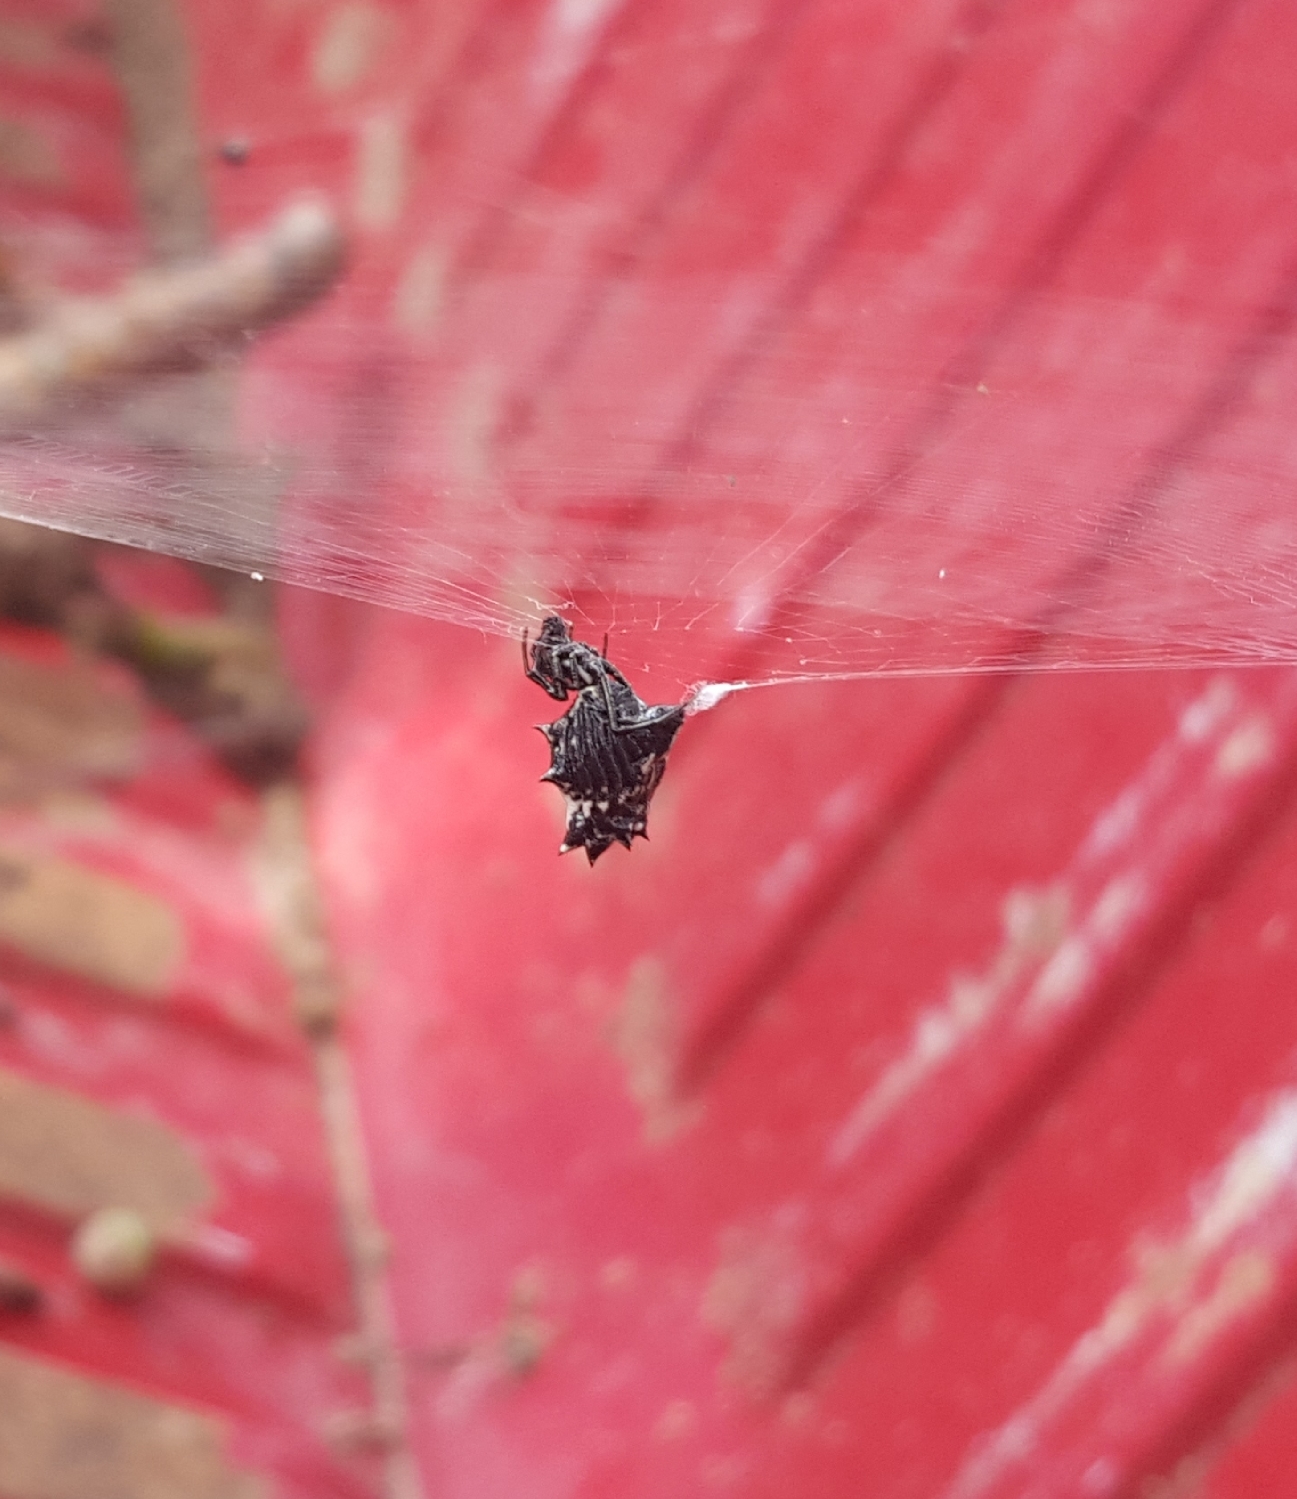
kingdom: Animalia
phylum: Arthropoda
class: Arachnida
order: Araneae
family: Araneidae
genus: Micrathena
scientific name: Micrathena gracilis
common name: Orb weavers
